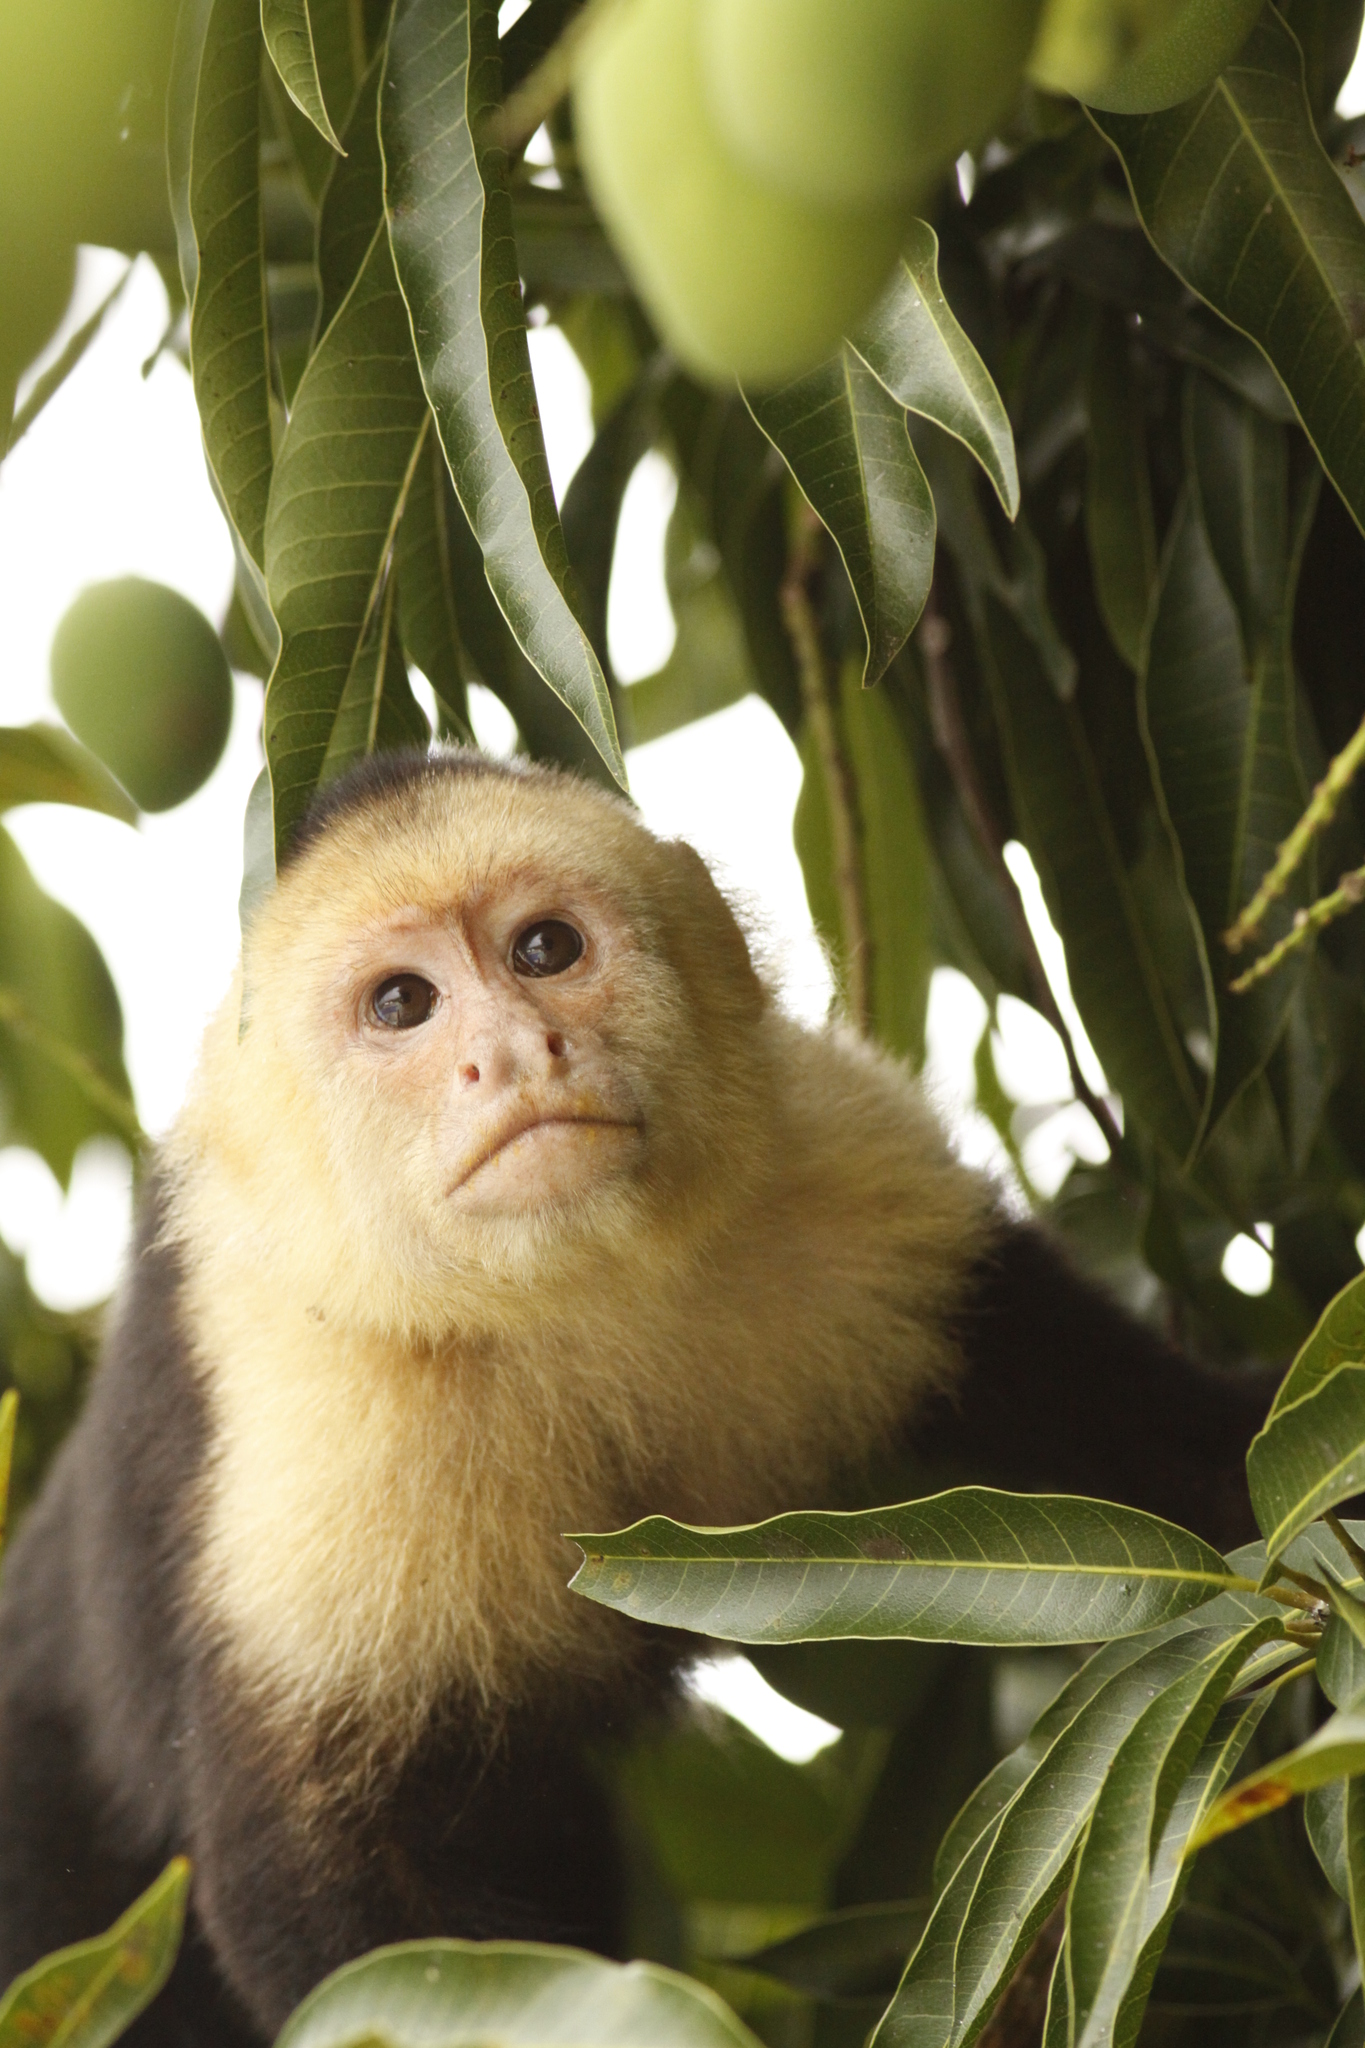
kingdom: Animalia
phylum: Chordata
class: Mammalia
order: Primates
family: Cebidae
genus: Cebus
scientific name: Cebus imitator
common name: Panamanian white-faced capuchin
